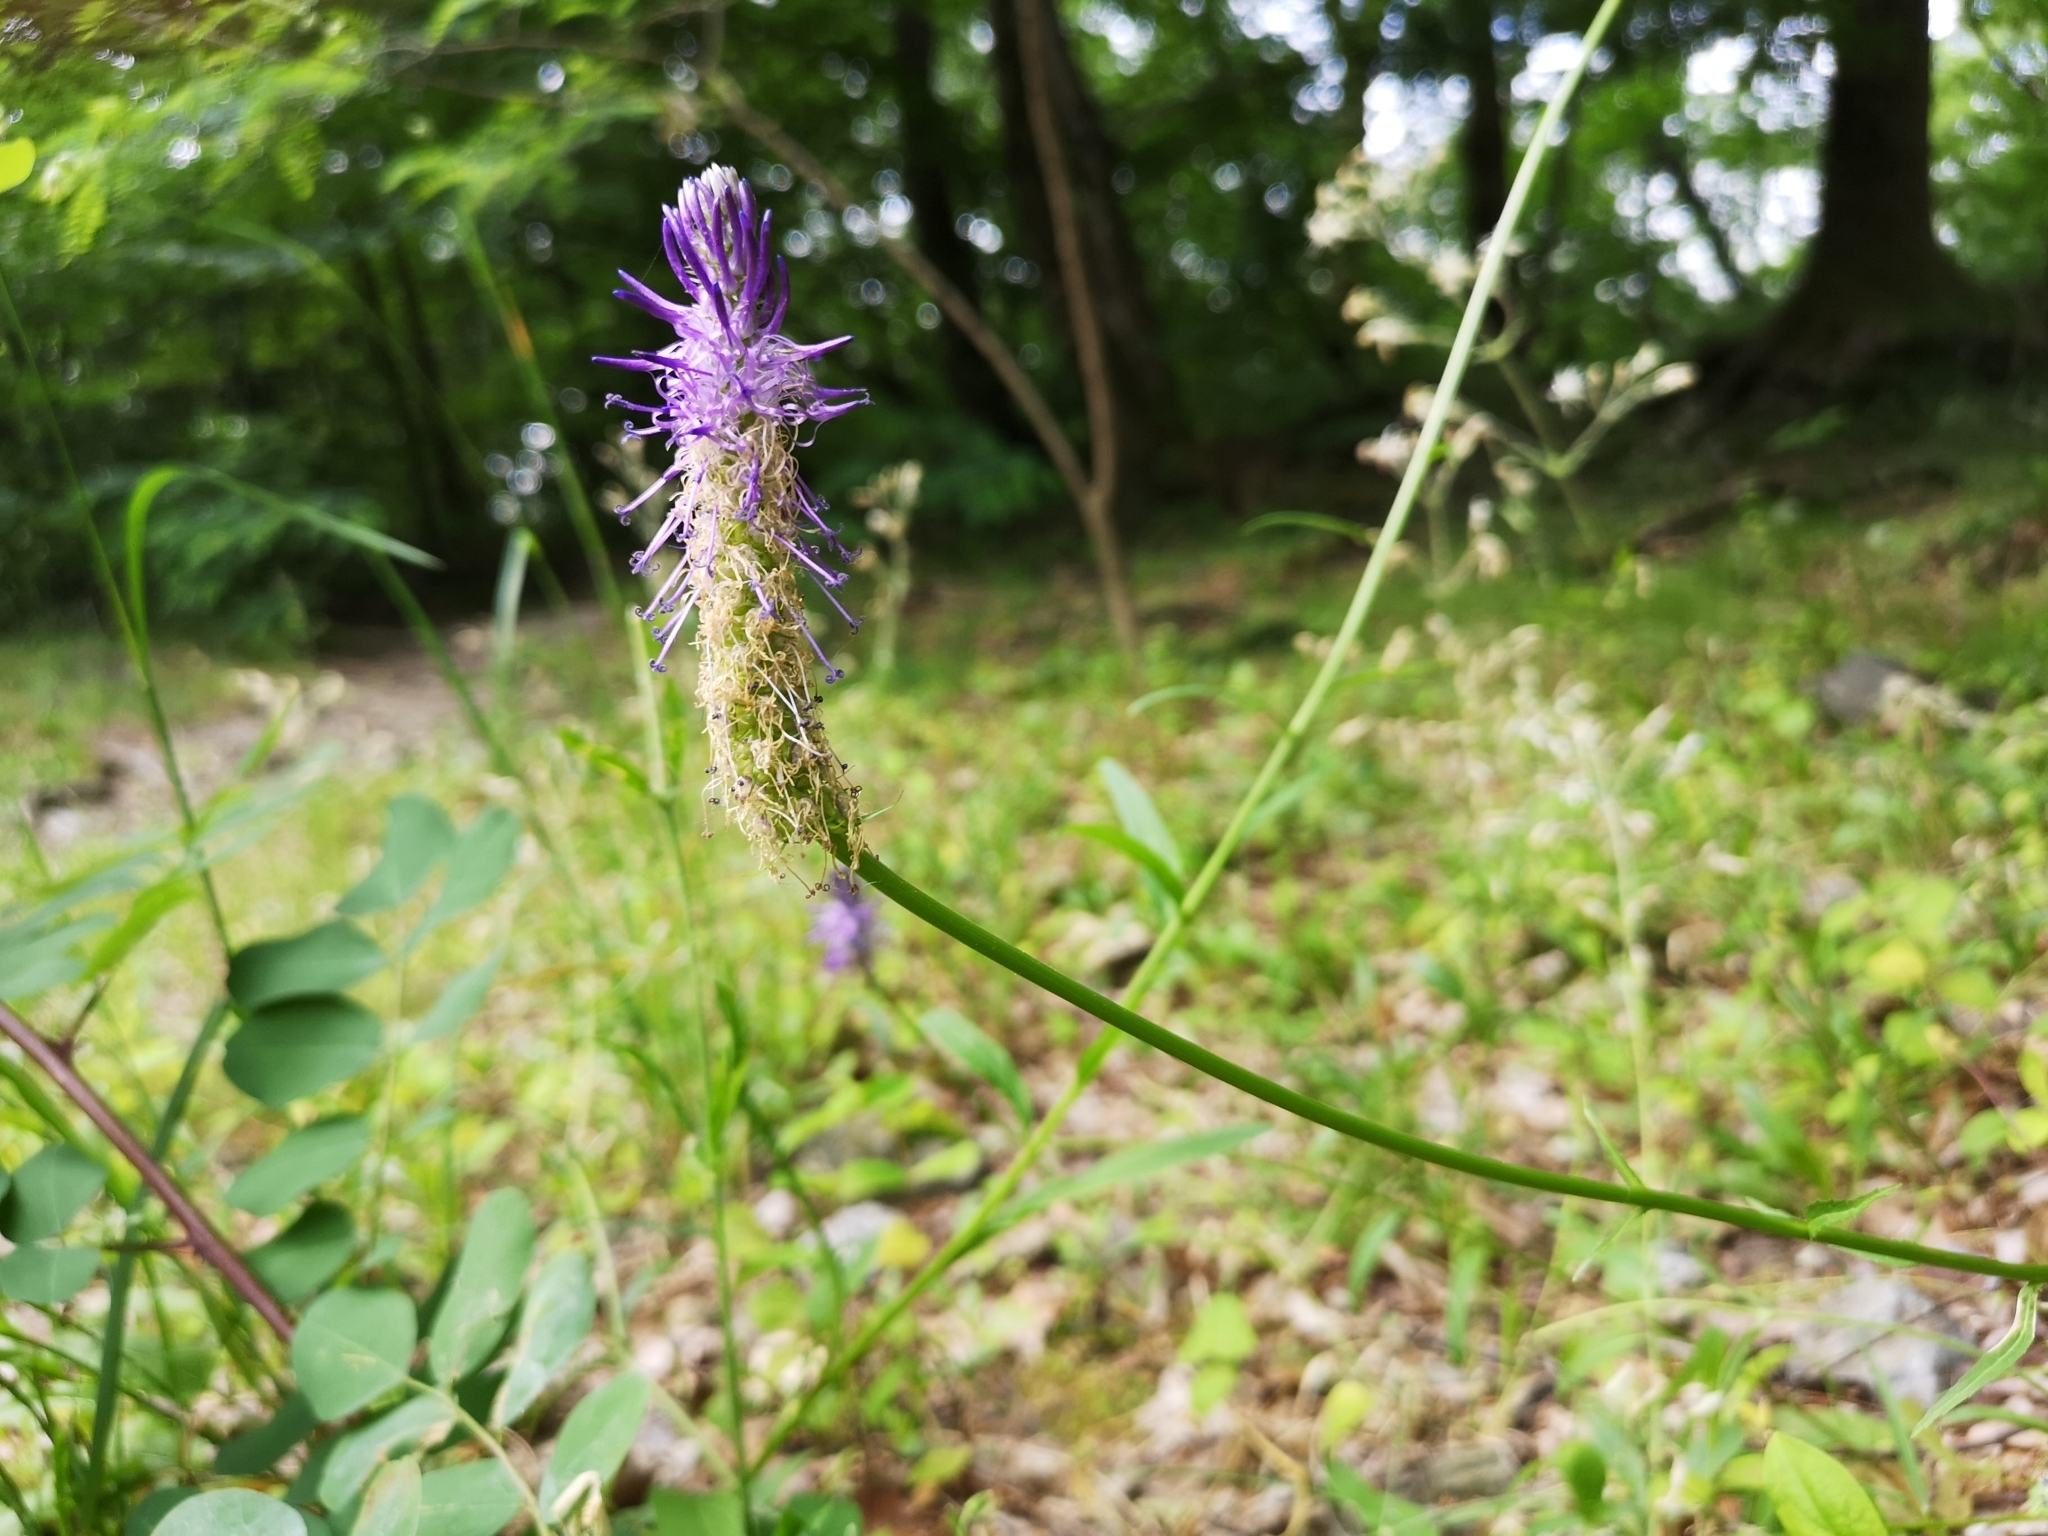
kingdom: Plantae
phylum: Tracheophyta
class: Magnoliopsida
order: Asterales
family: Campanulaceae
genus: Phyteuma
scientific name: Phyteuma betonicifolium
